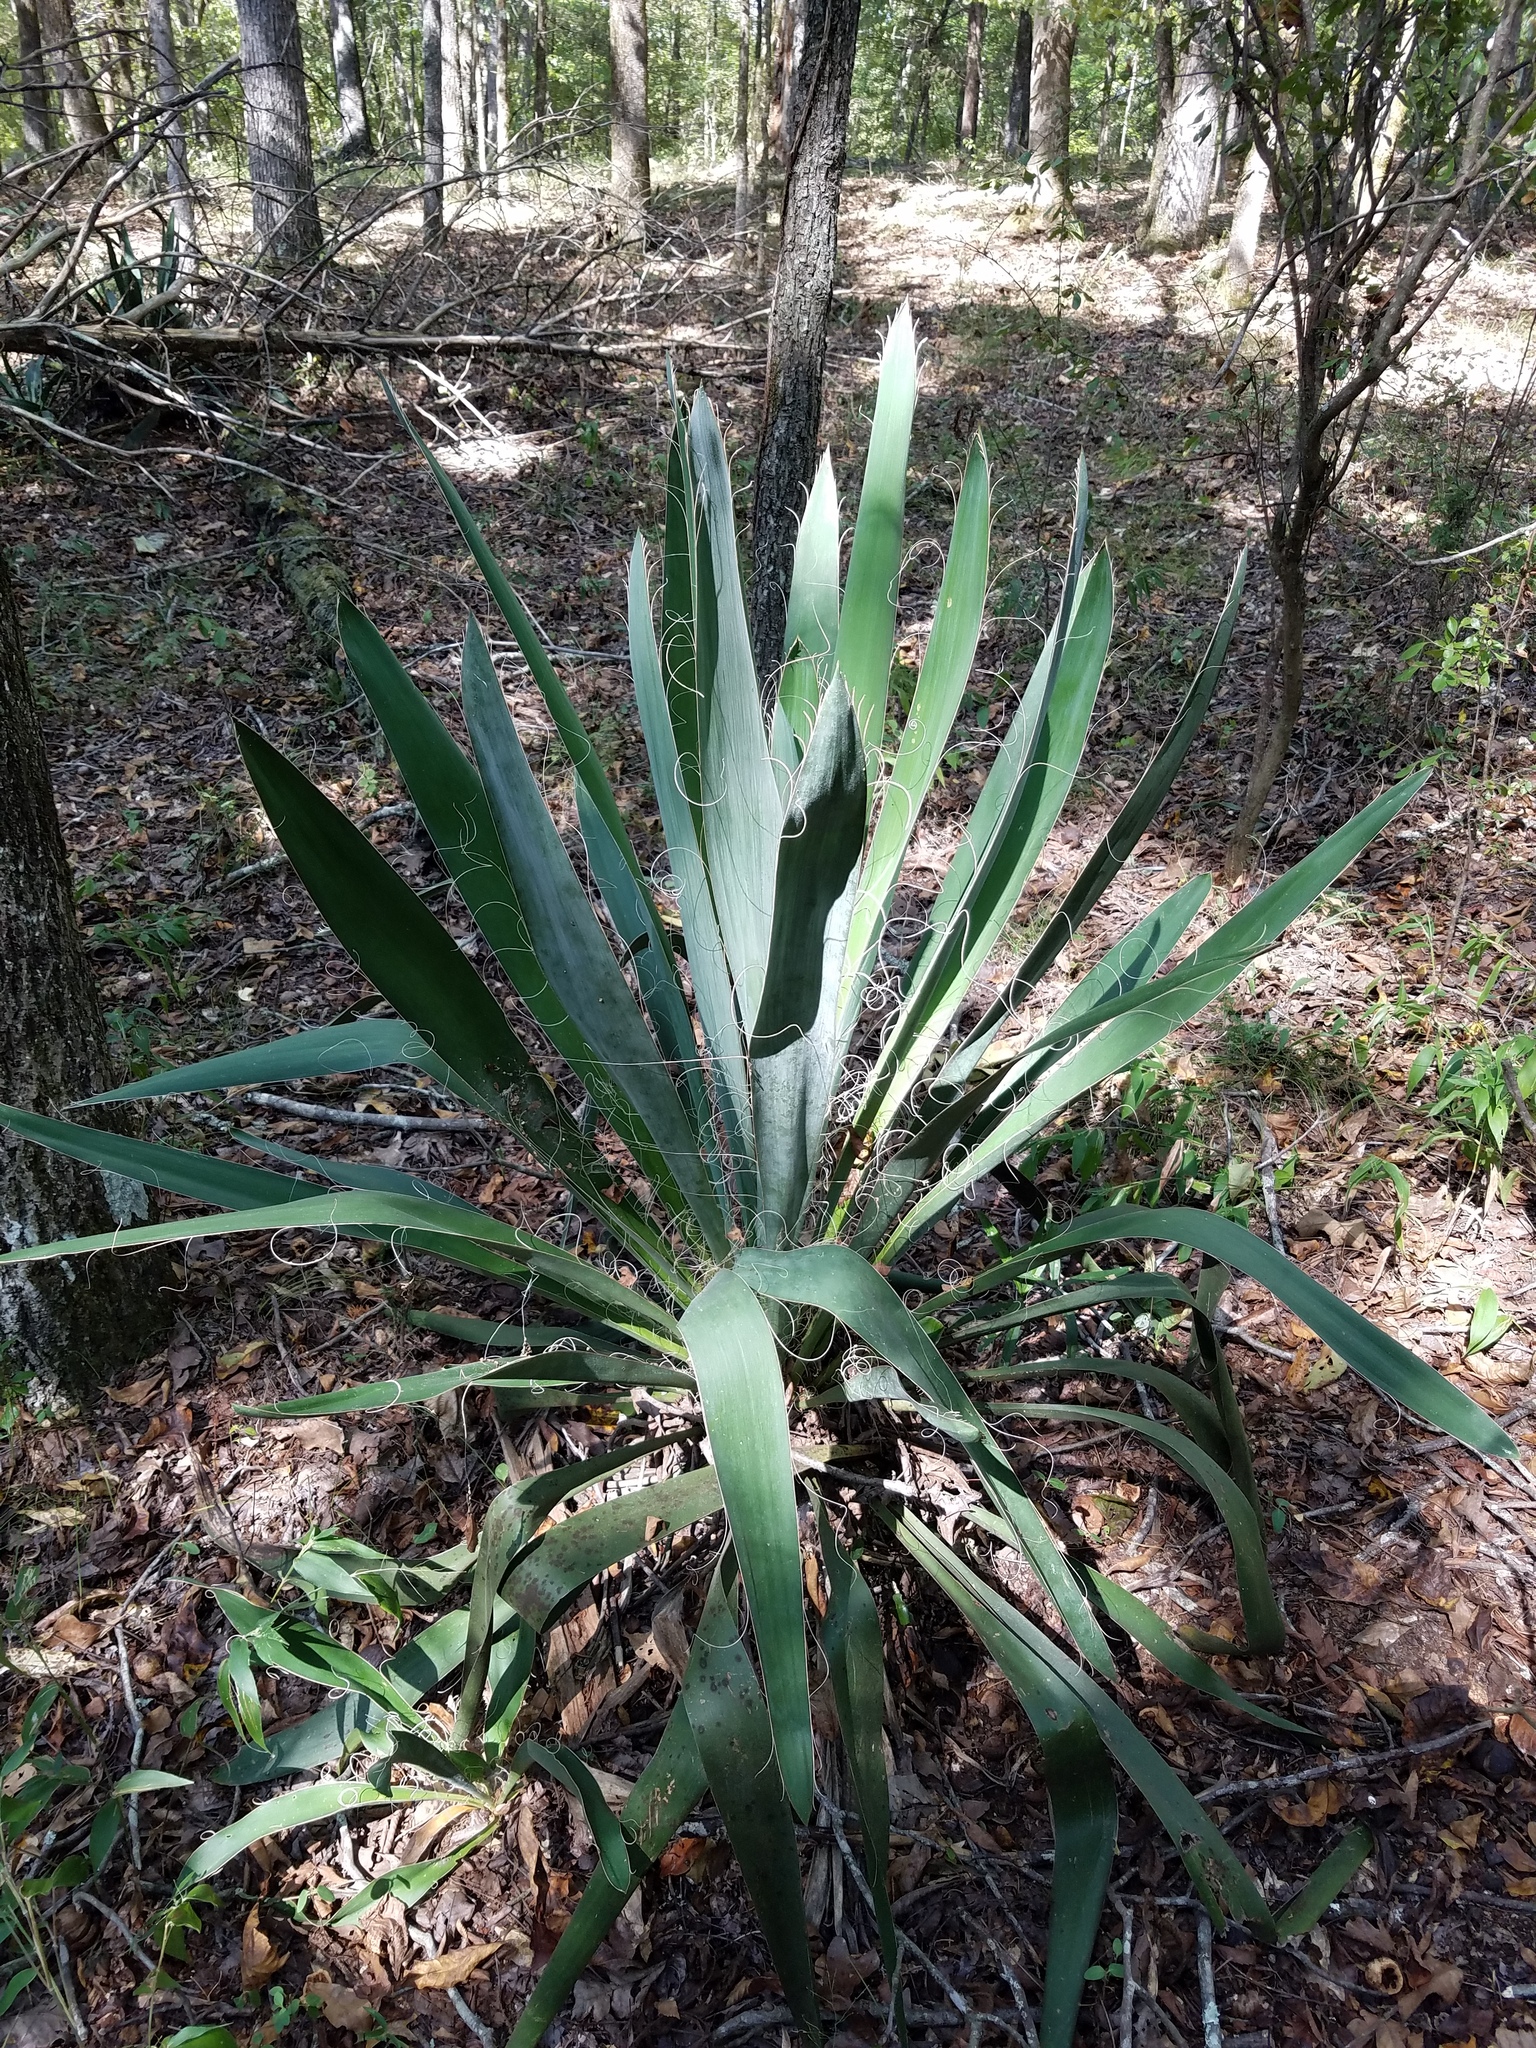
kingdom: Plantae
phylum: Tracheophyta
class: Liliopsida
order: Asparagales
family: Asparagaceae
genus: Yucca
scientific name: Yucca filamentosa
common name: Adam's-needle
